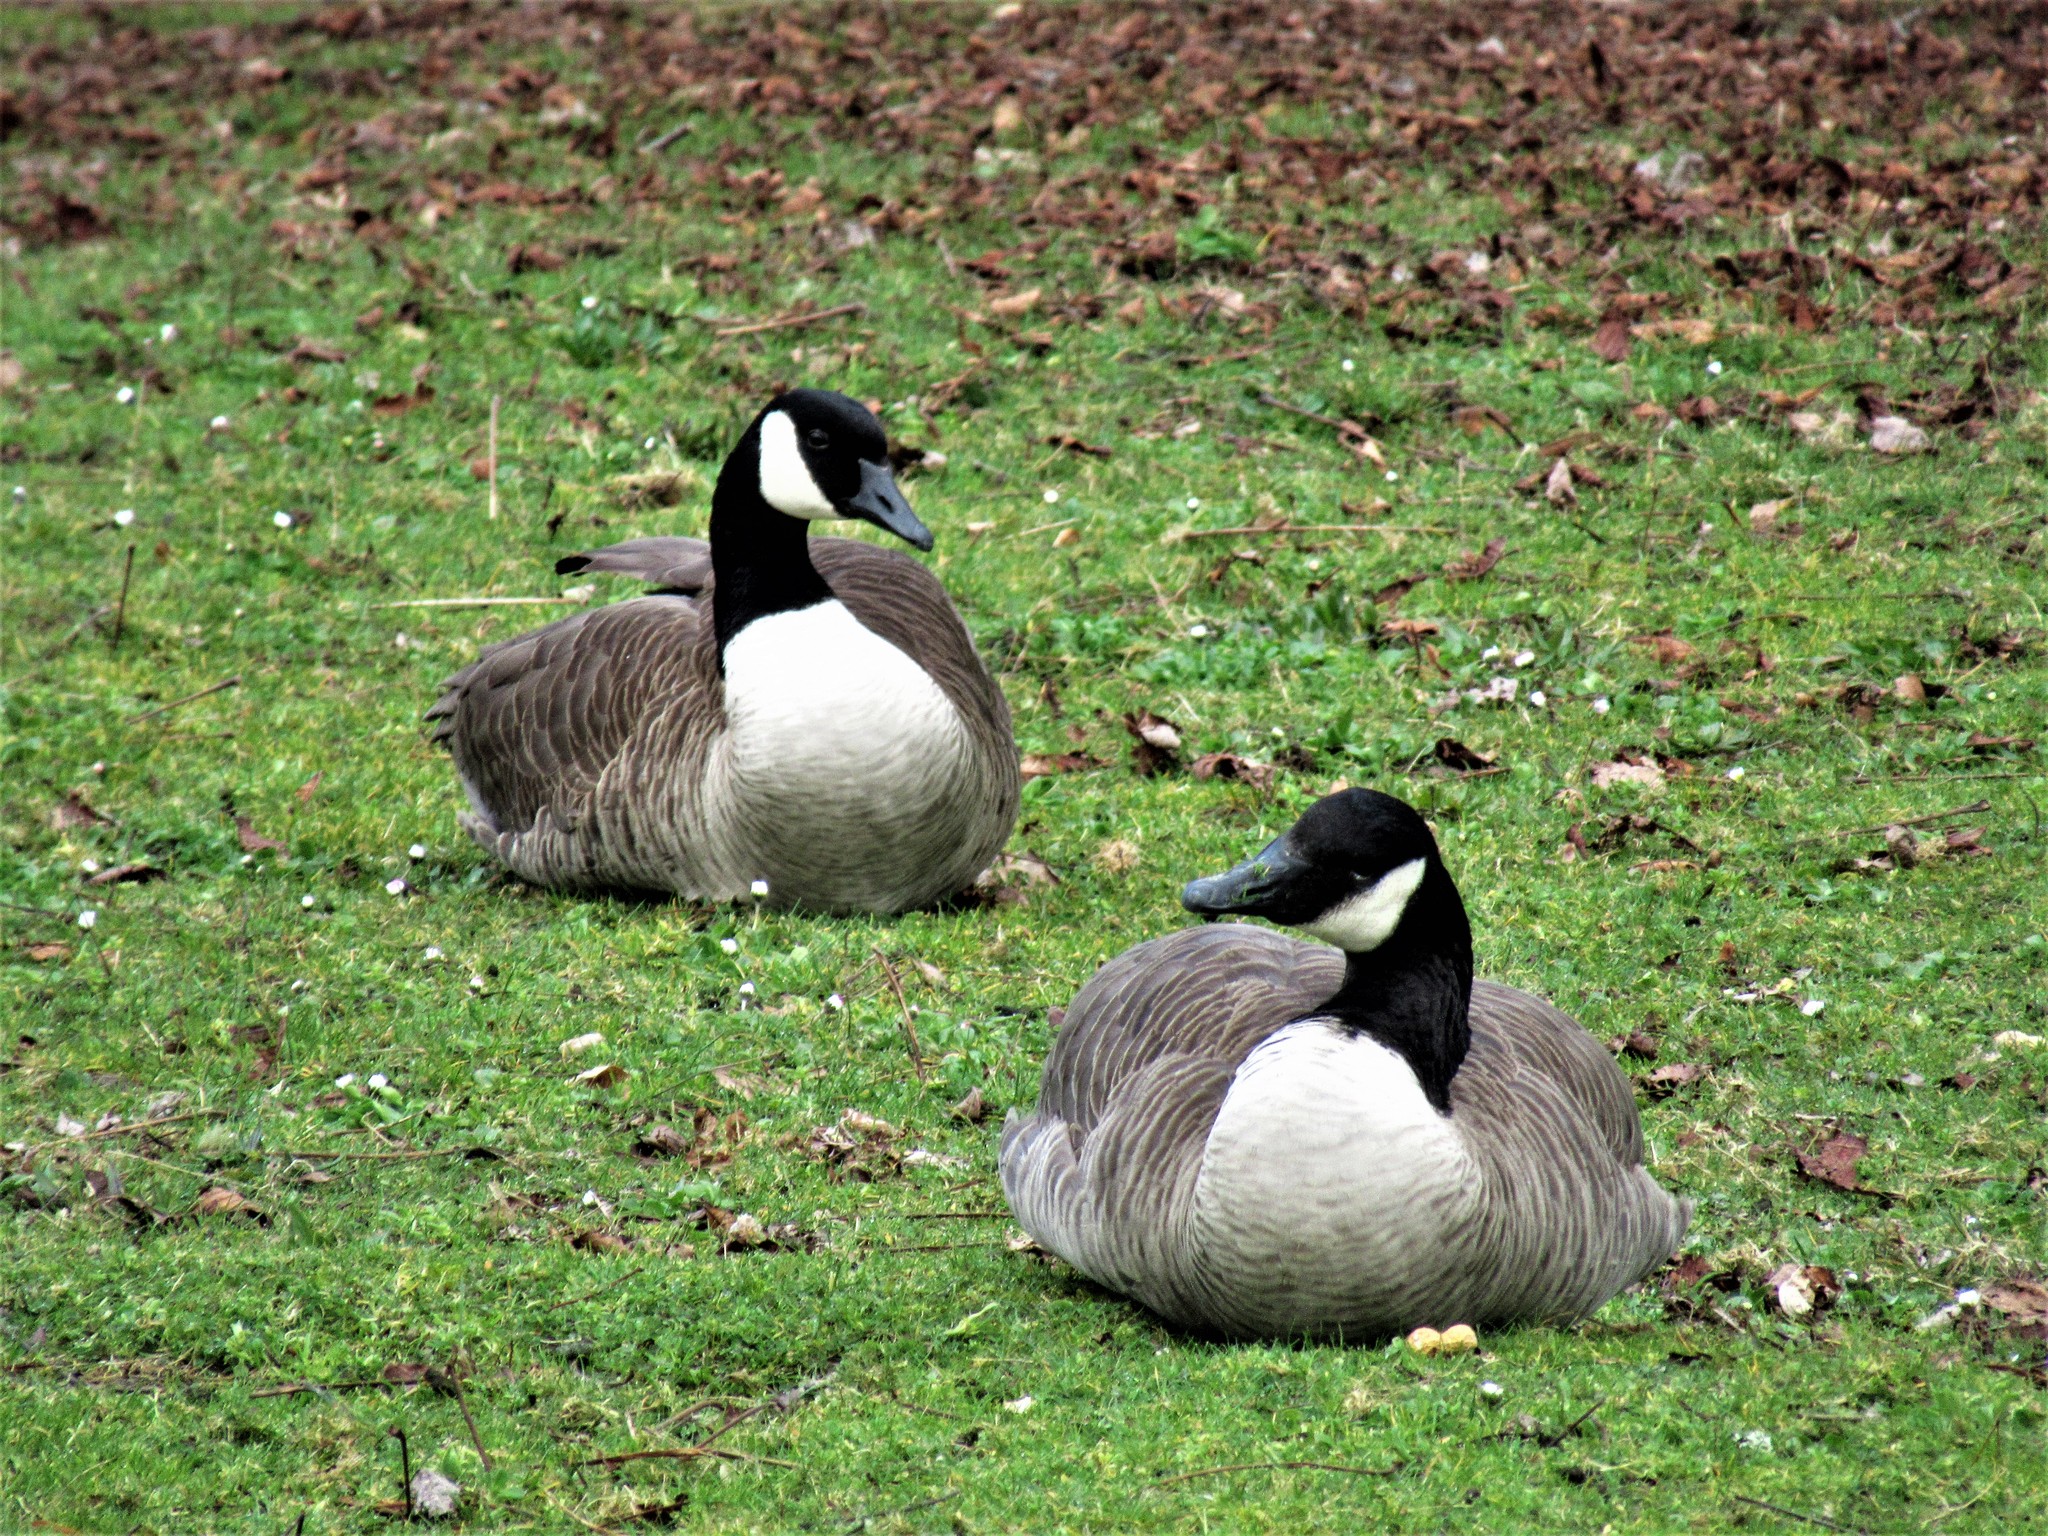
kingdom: Animalia
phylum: Chordata
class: Aves
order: Anseriformes
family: Anatidae
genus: Branta
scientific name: Branta canadensis
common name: Canada goose
